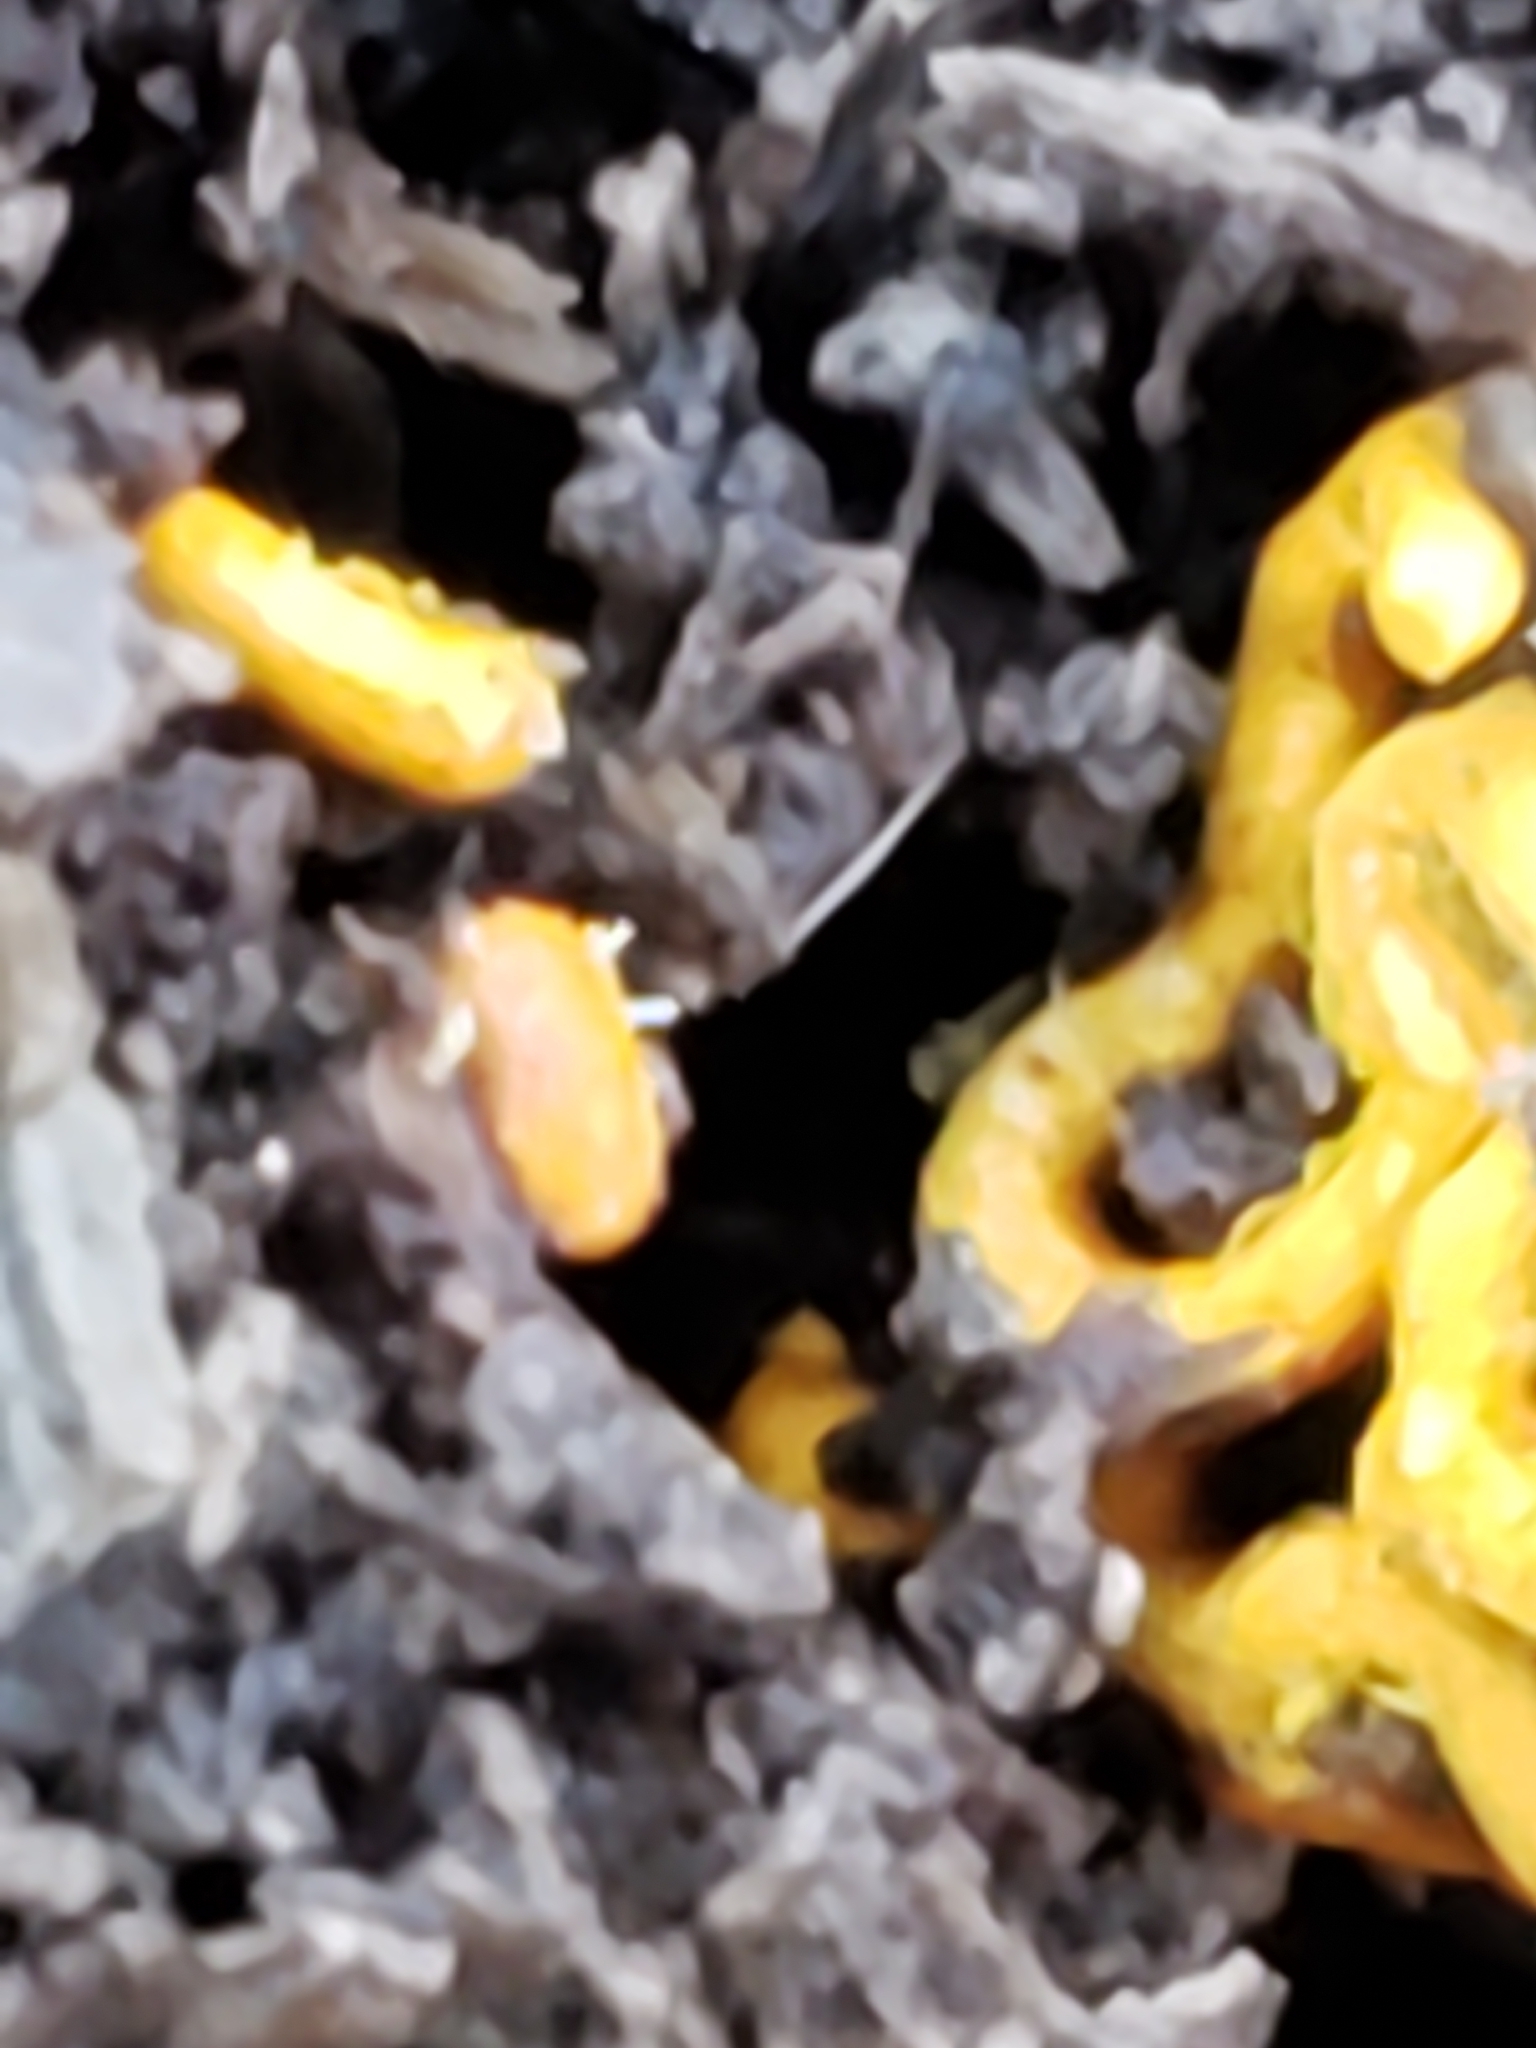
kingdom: Protozoa
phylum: Mycetozoa
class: Myxomycetes
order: Trichiales
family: Arcyriaceae
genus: Hemitrichia
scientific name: Hemitrichia serpula
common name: Pretzel slime mold
